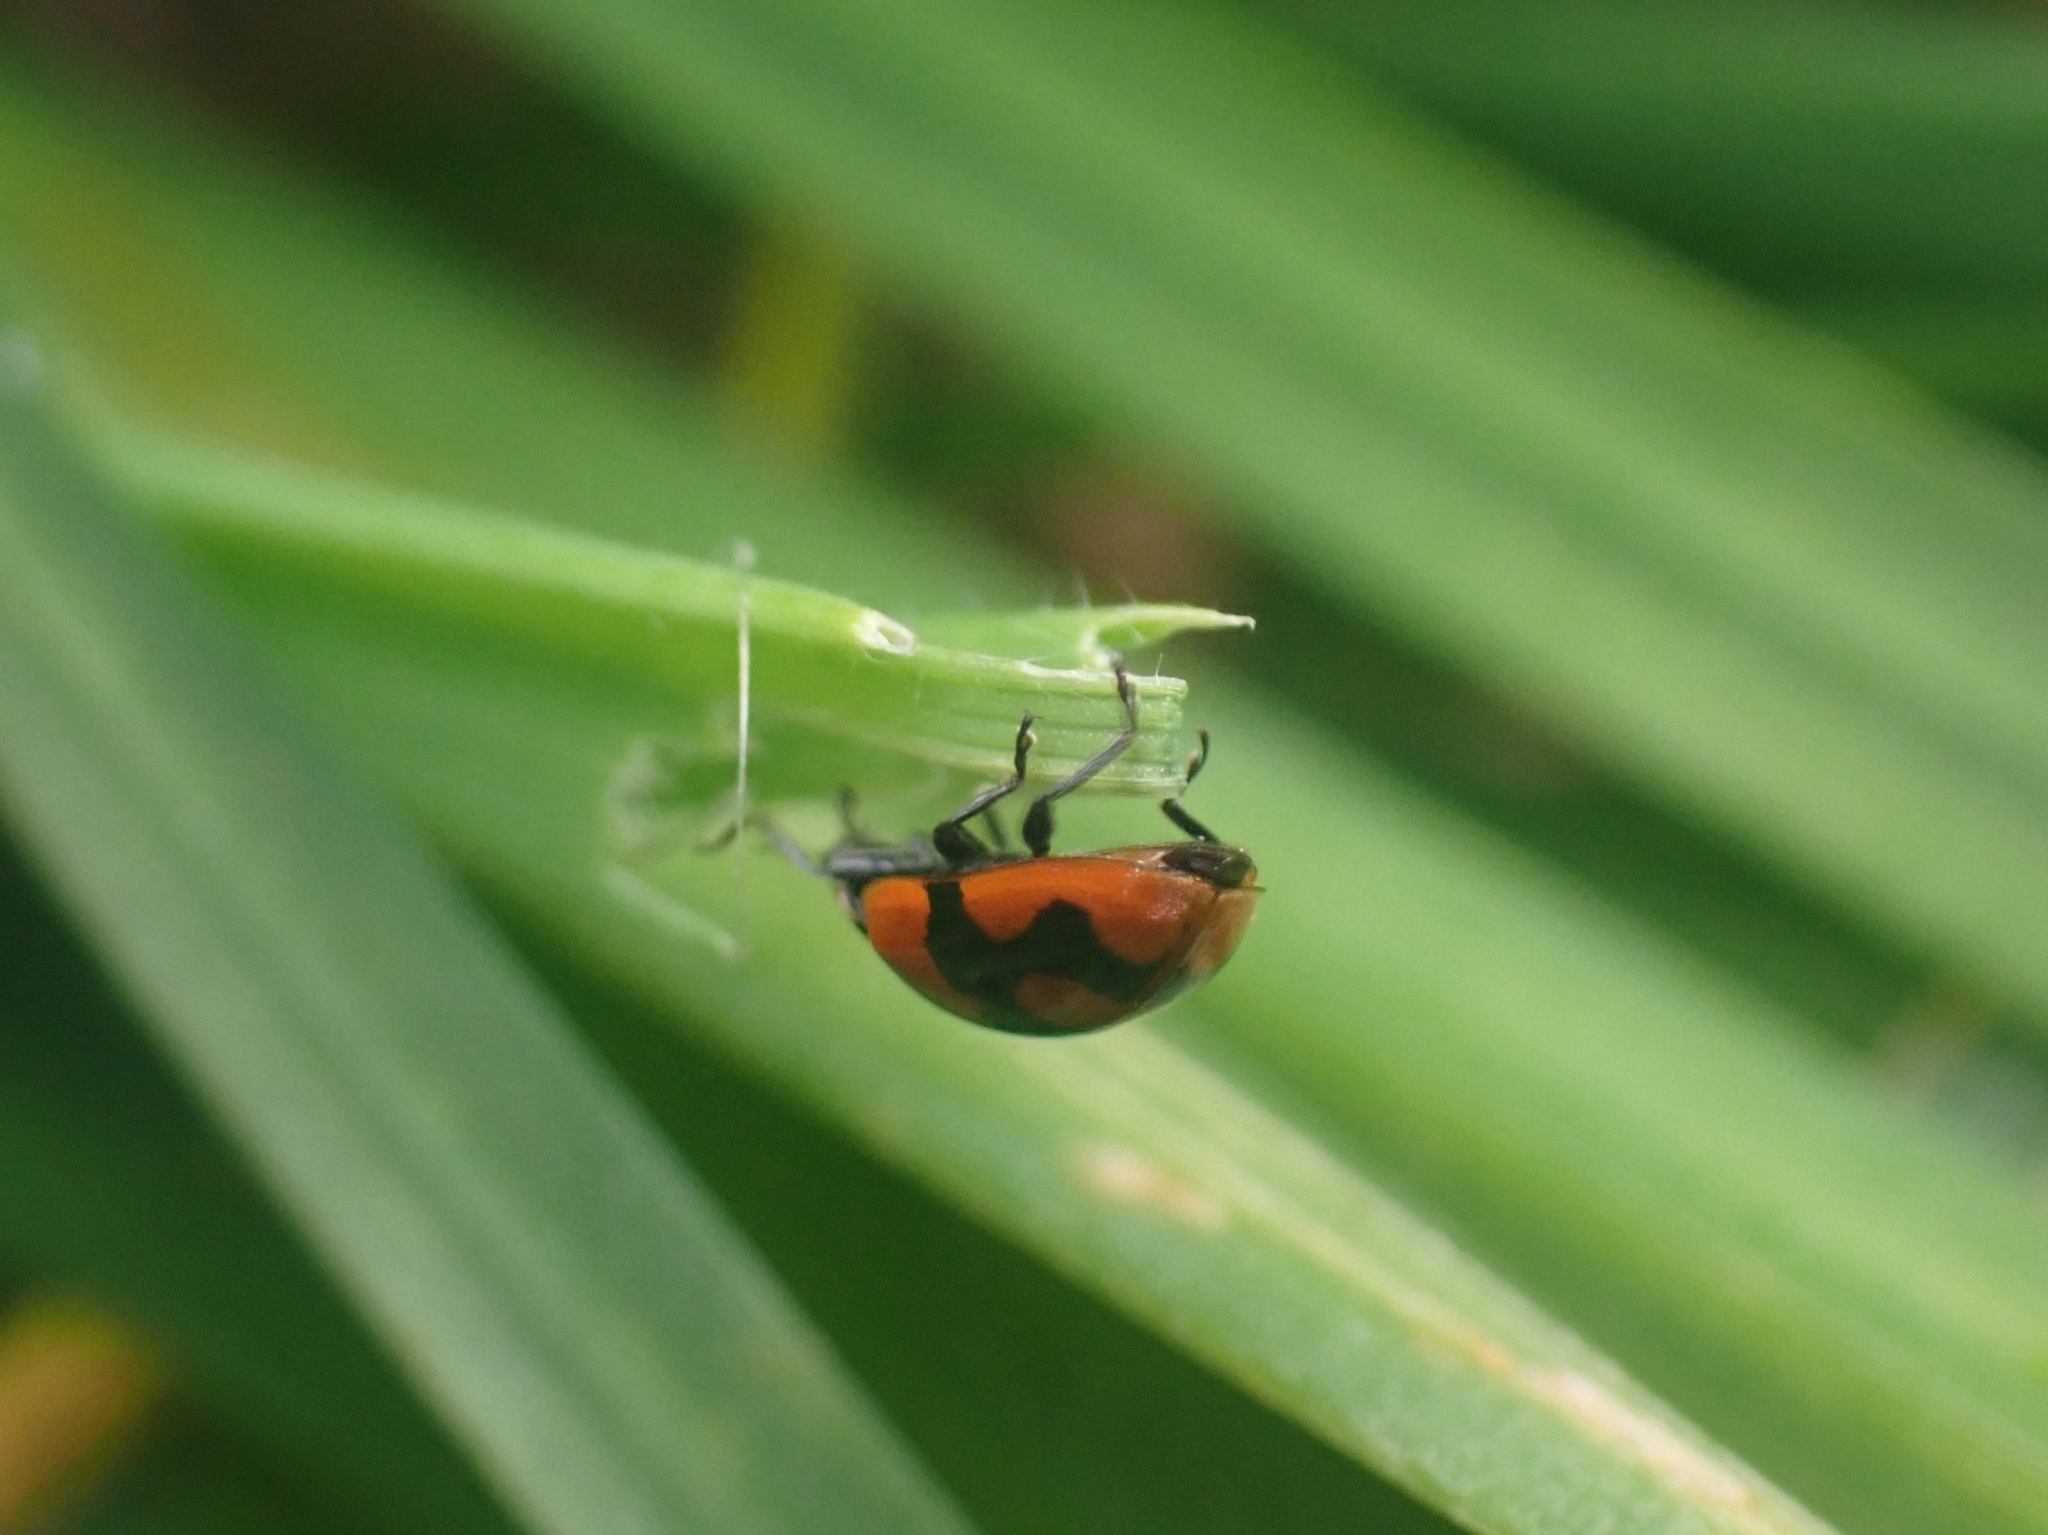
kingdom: Animalia
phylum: Arthropoda
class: Insecta
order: Coleoptera
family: Coccinellidae
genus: Adalia
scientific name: Adalia bipunctata
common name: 2-spot ladybird
